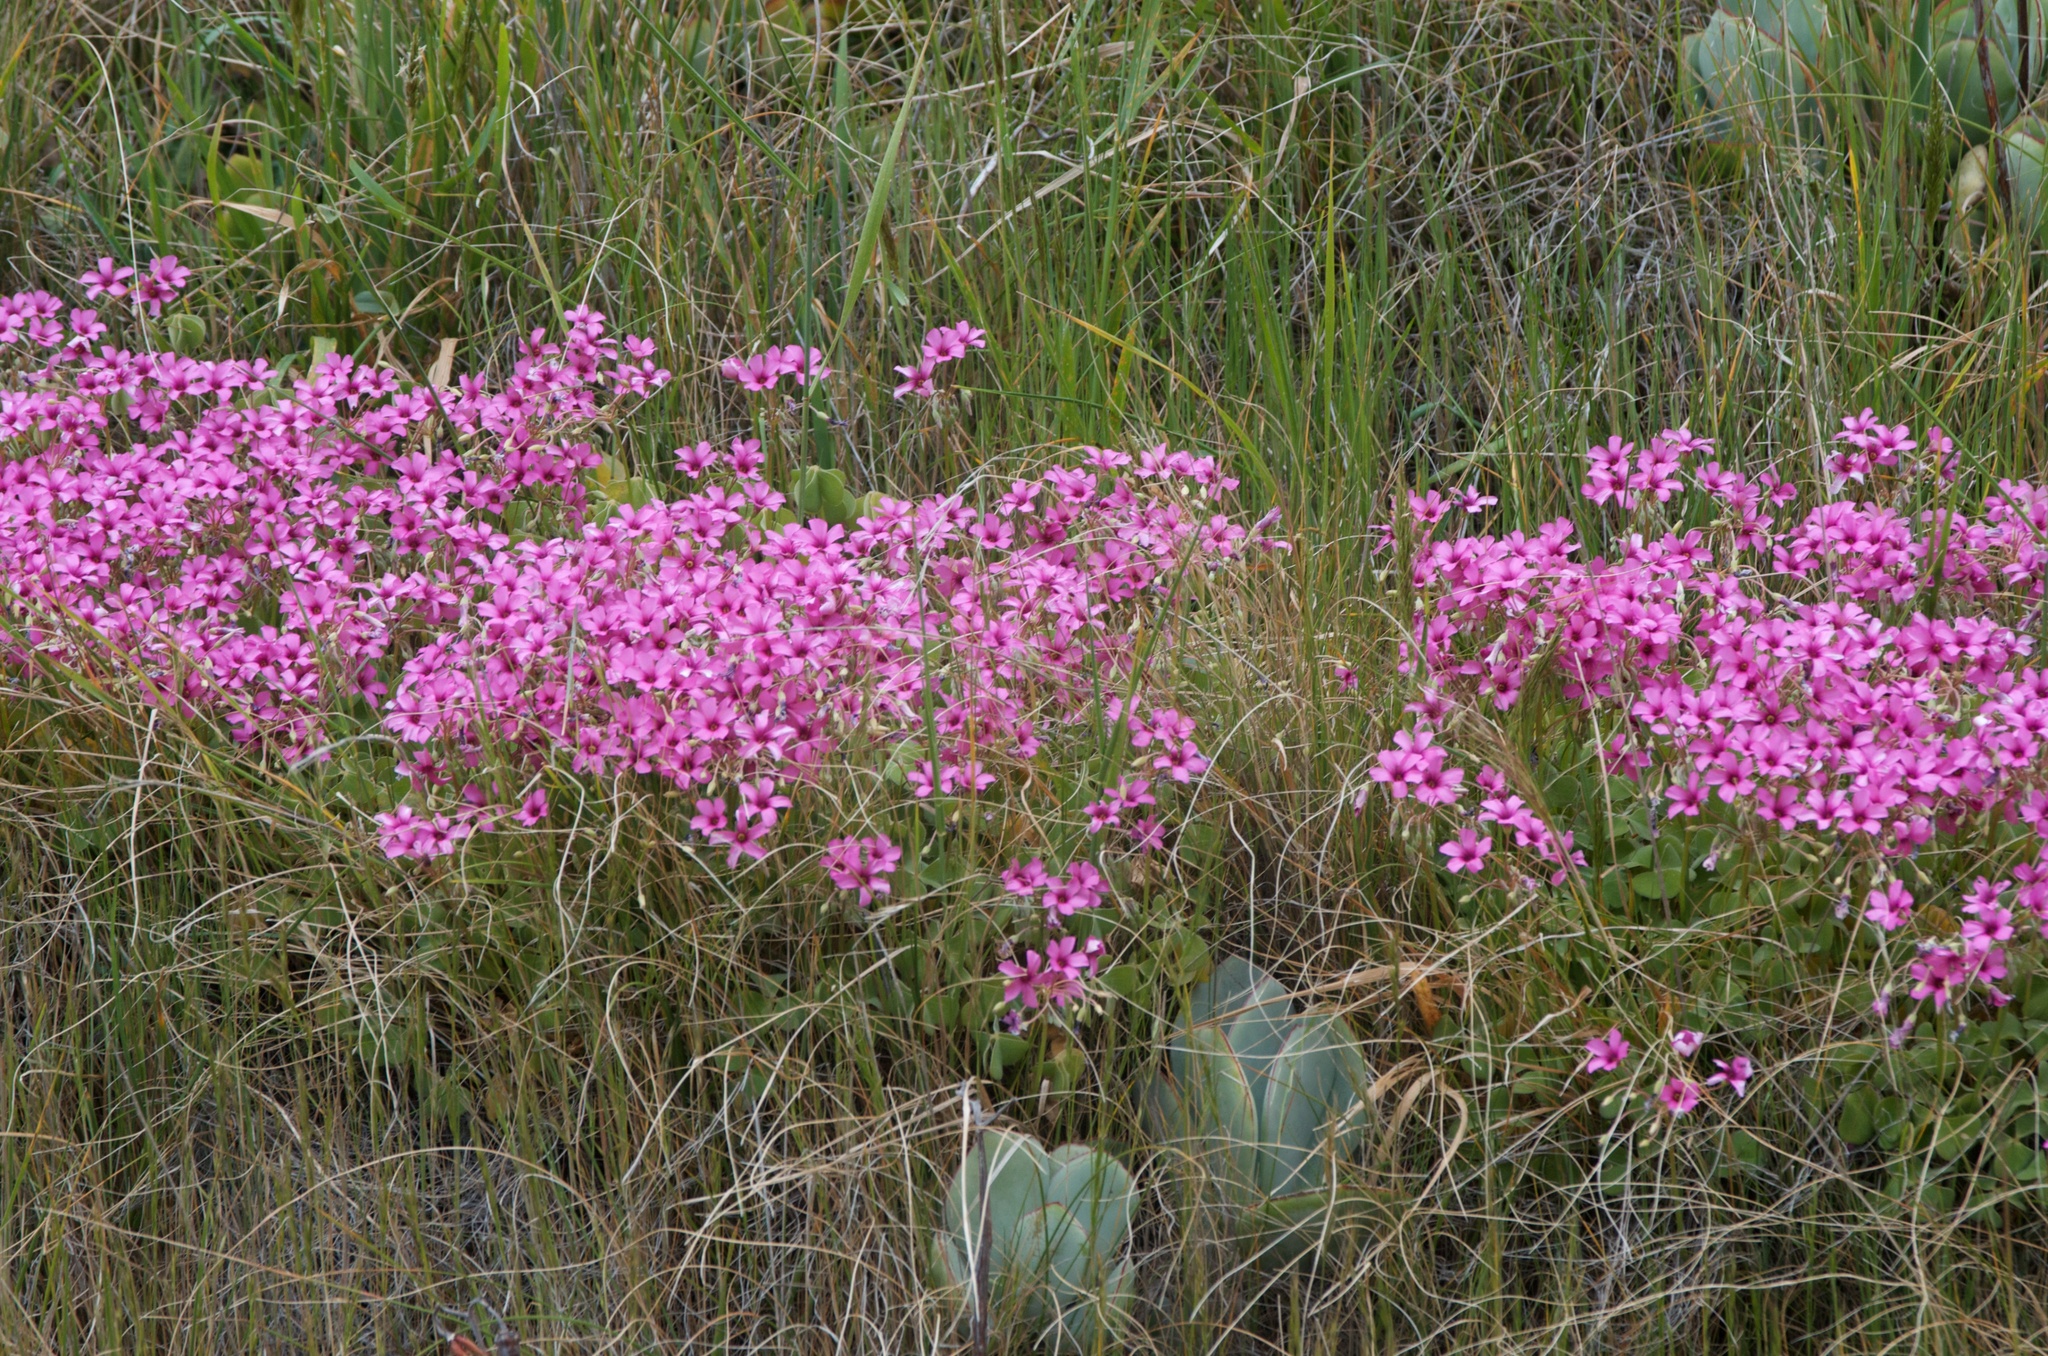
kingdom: Plantae
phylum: Tracheophyta
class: Magnoliopsida
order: Oxalidales
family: Oxalidaceae
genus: Oxalis
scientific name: Oxalis articulata
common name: Pink-sorrel
